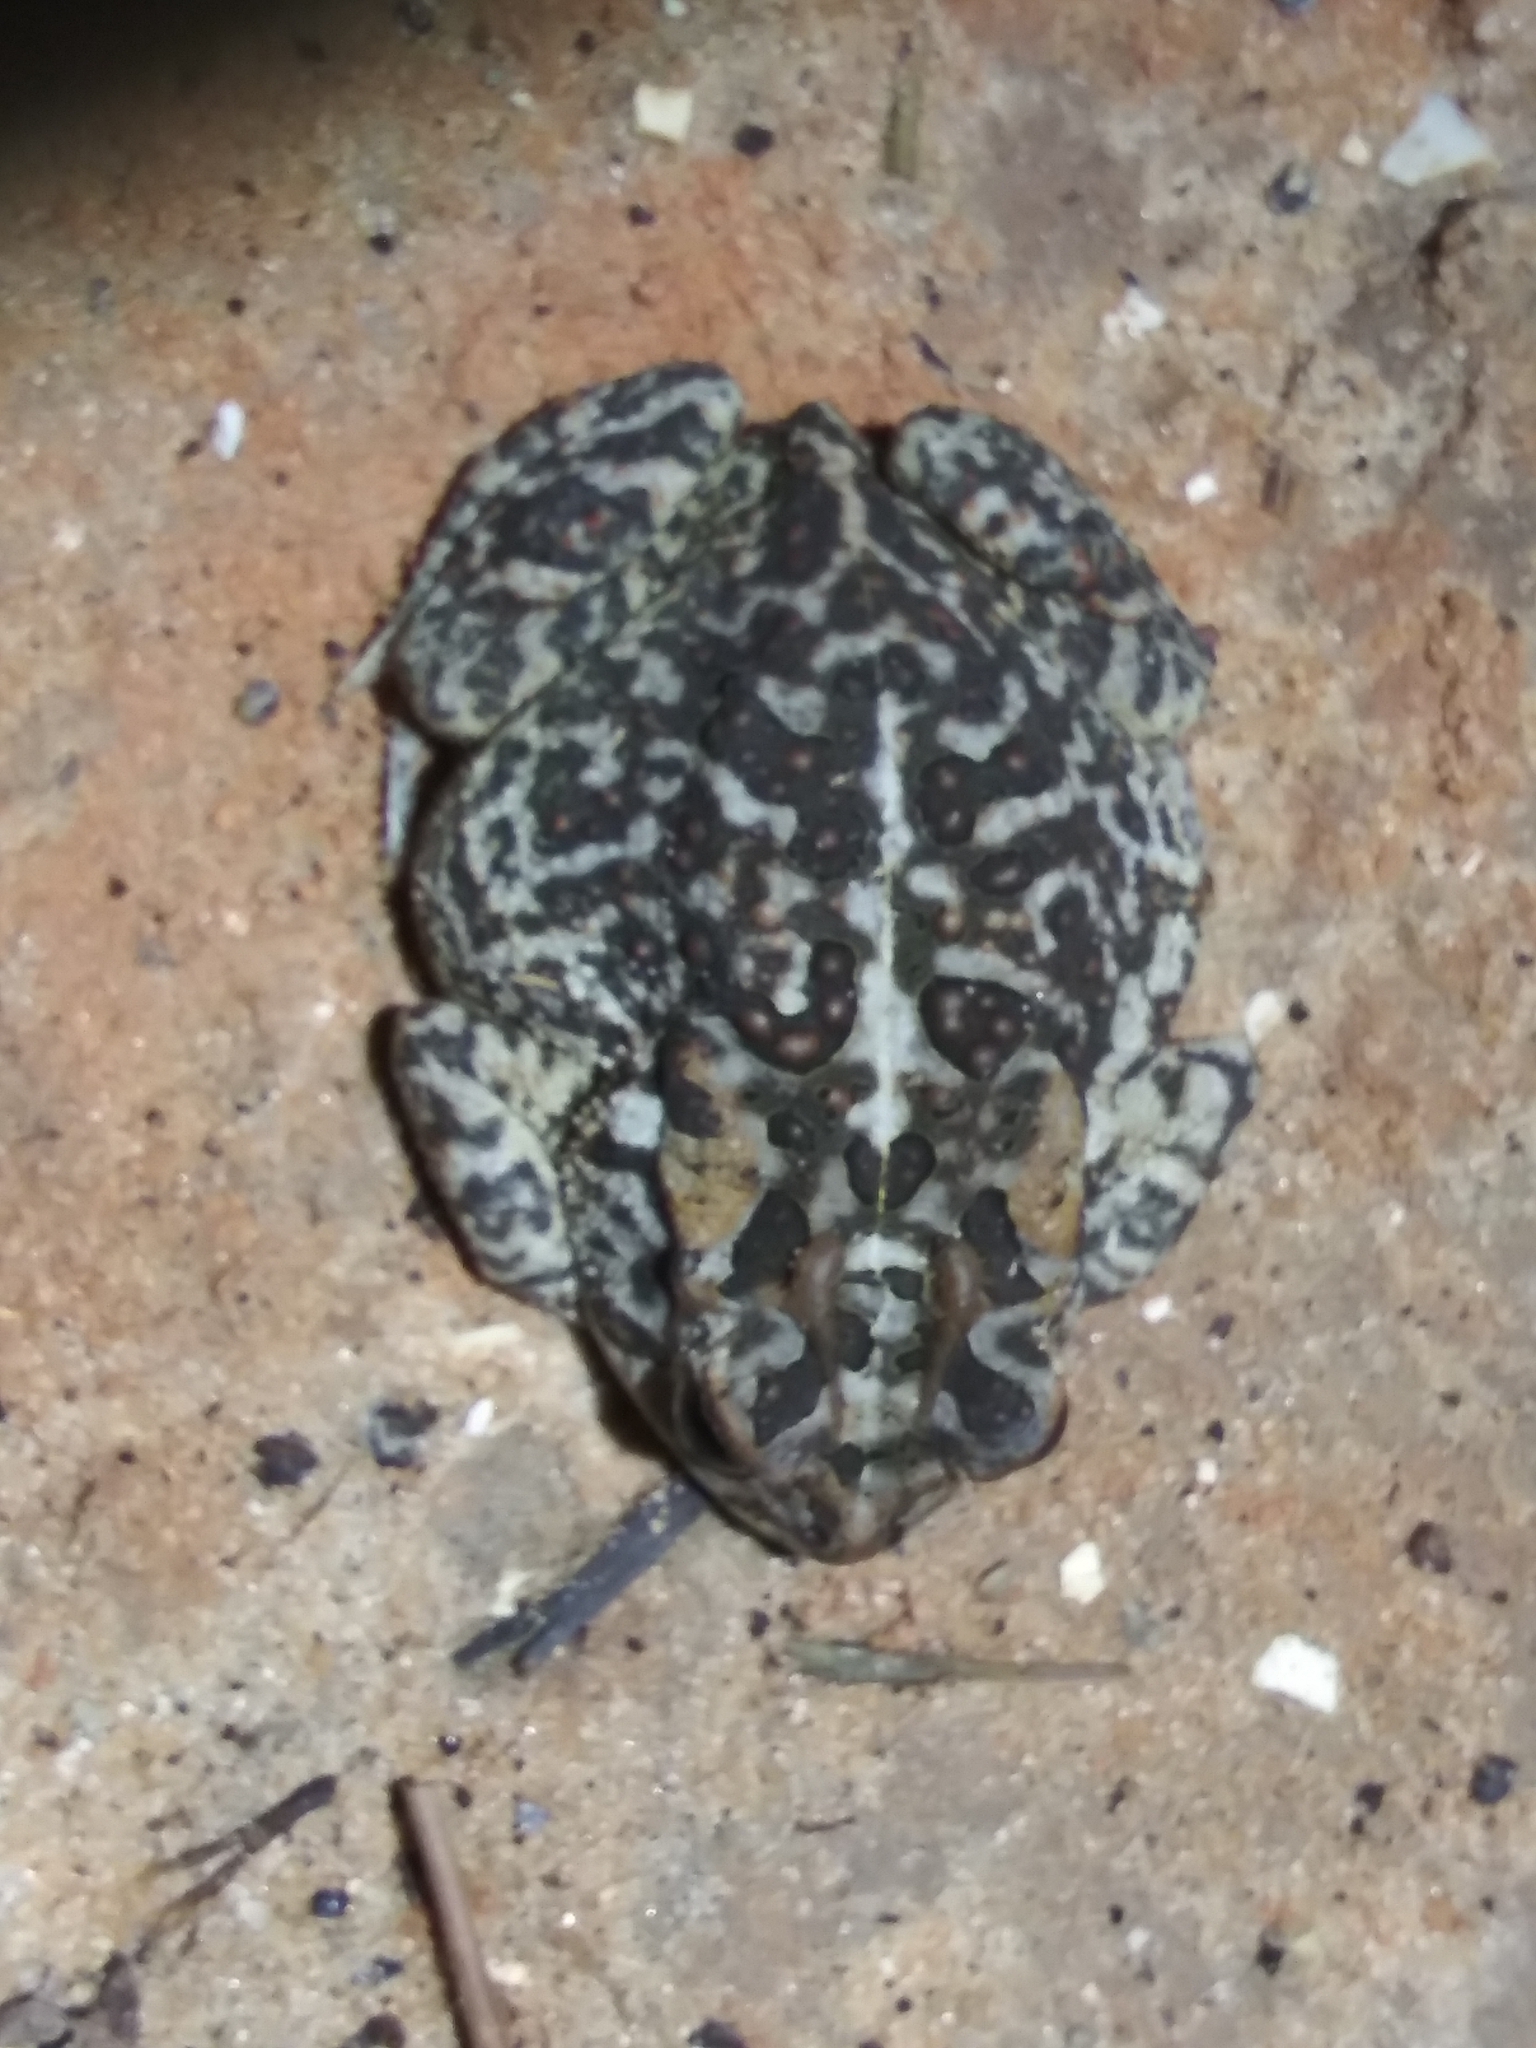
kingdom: Animalia
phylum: Chordata
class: Amphibia
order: Anura
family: Bufonidae
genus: Anaxyrus
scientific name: Anaxyrus terrestris
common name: Southern toad
